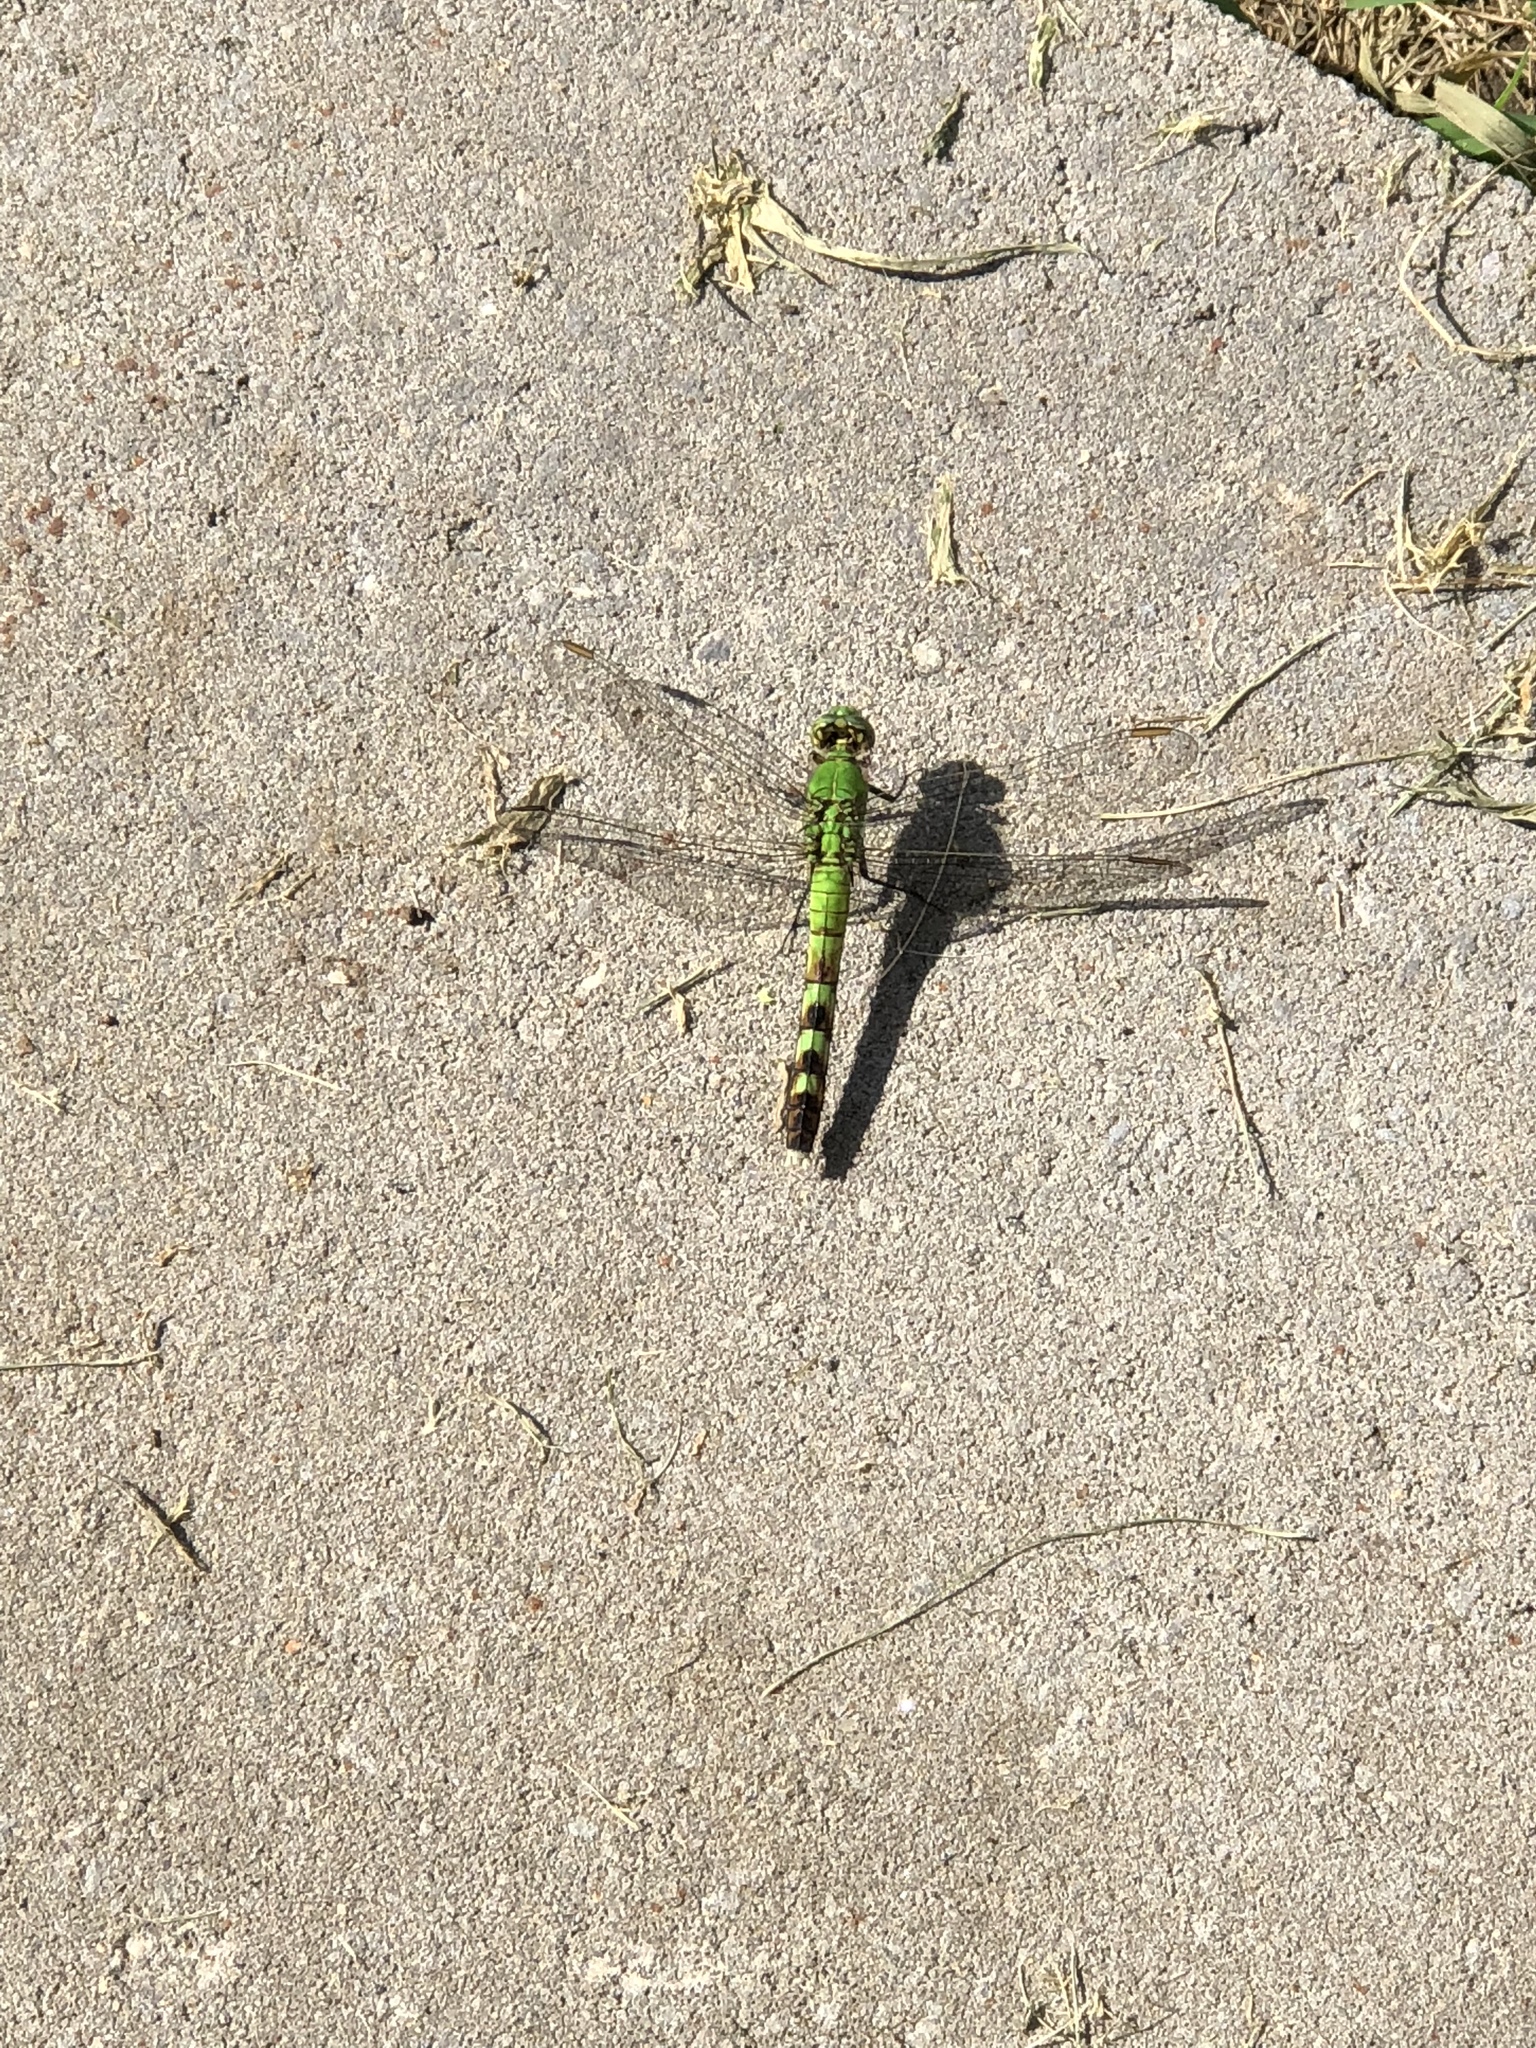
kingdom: Animalia
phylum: Arthropoda
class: Insecta
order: Odonata
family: Libellulidae
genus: Erythemis
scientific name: Erythemis simplicicollis
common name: Eastern pondhawk
